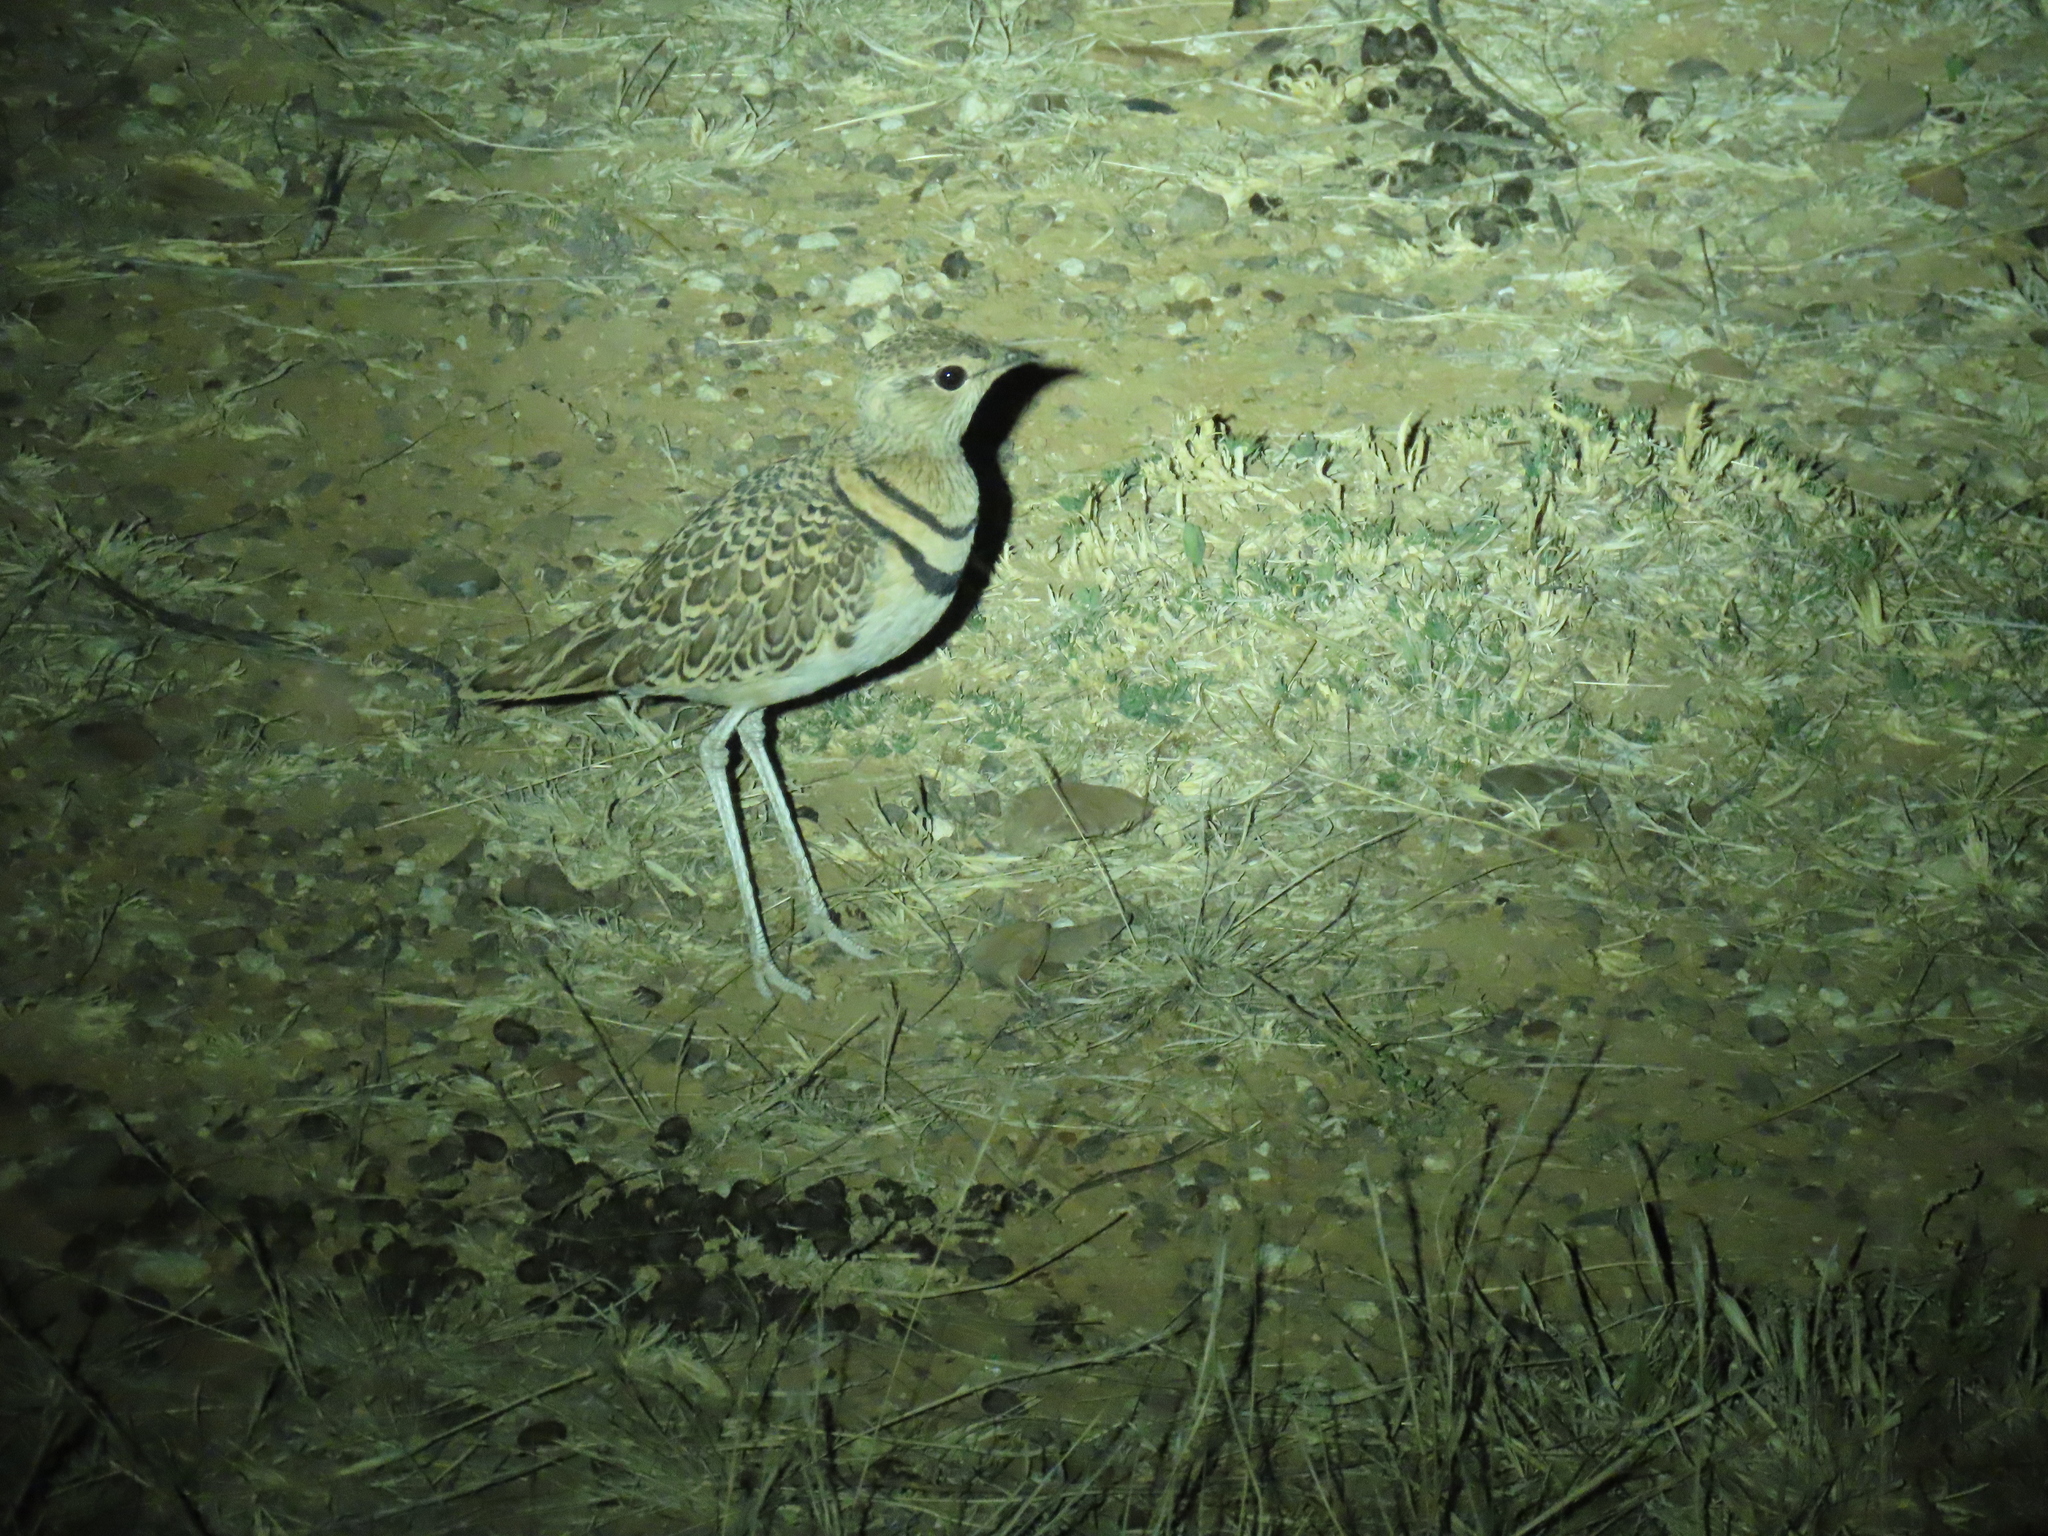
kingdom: Animalia
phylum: Chordata
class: Aves
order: Charadriiformes
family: Glareolidae
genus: Rhinoptilus
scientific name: Rhinoptilus africanus
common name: Double-banded courser
